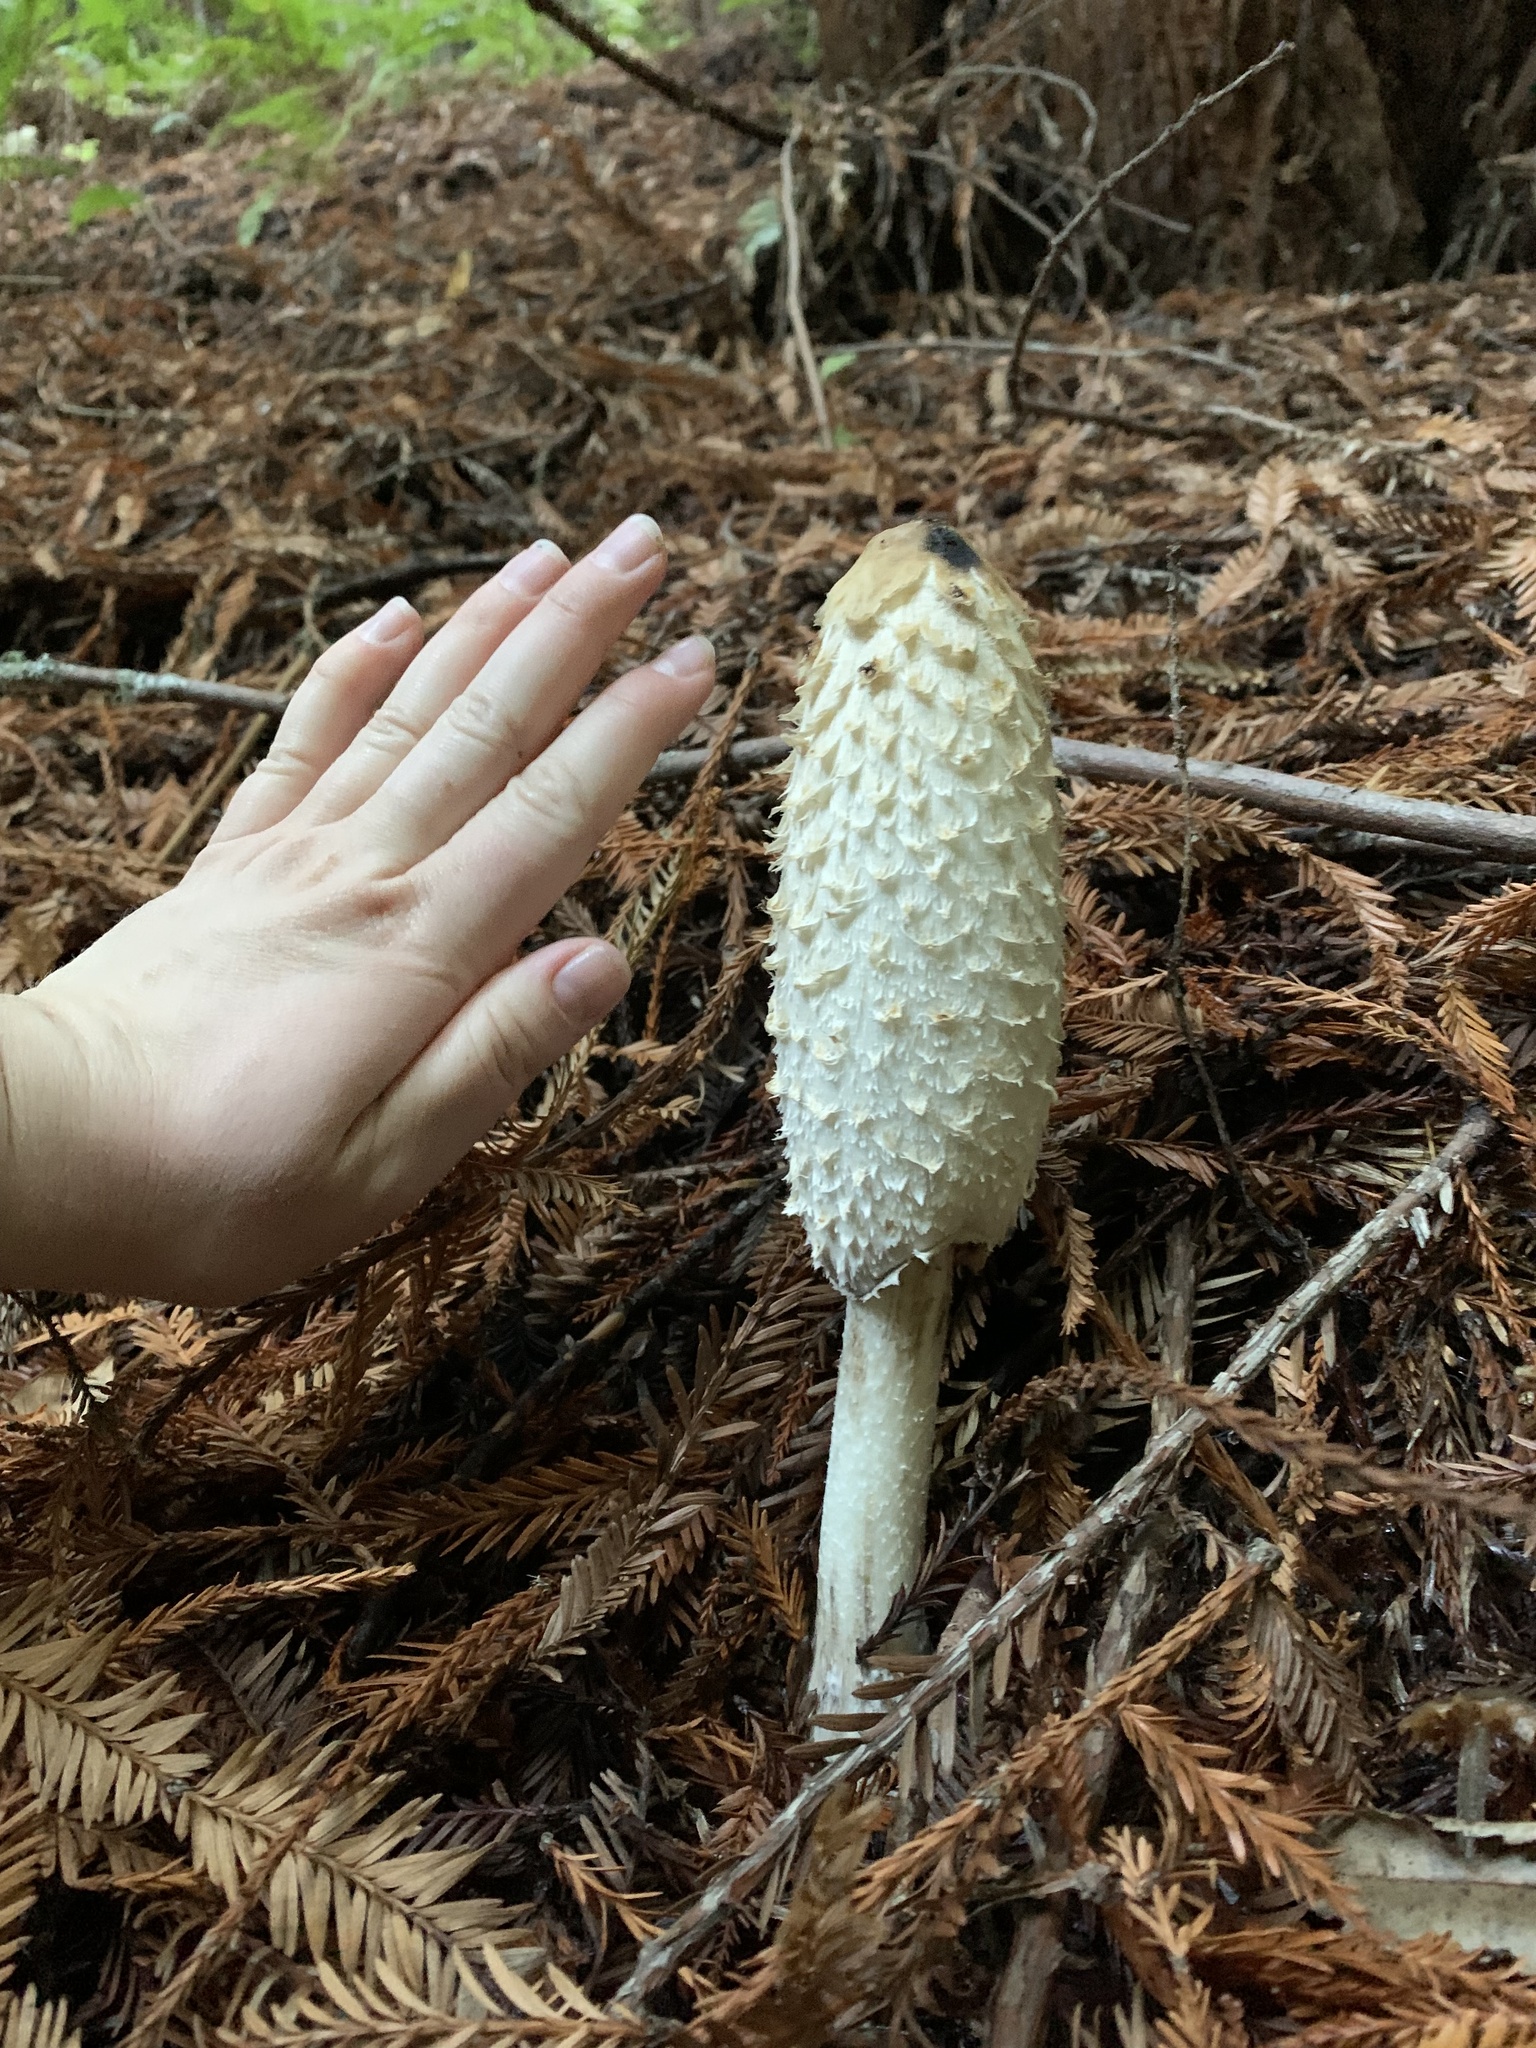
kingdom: Fungi
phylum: Basidiomycota
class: Agaricomycetes
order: Agaricales
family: Agaricaceae
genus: Coprinus
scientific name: Coprinus comatus
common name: Lawyer's wig
